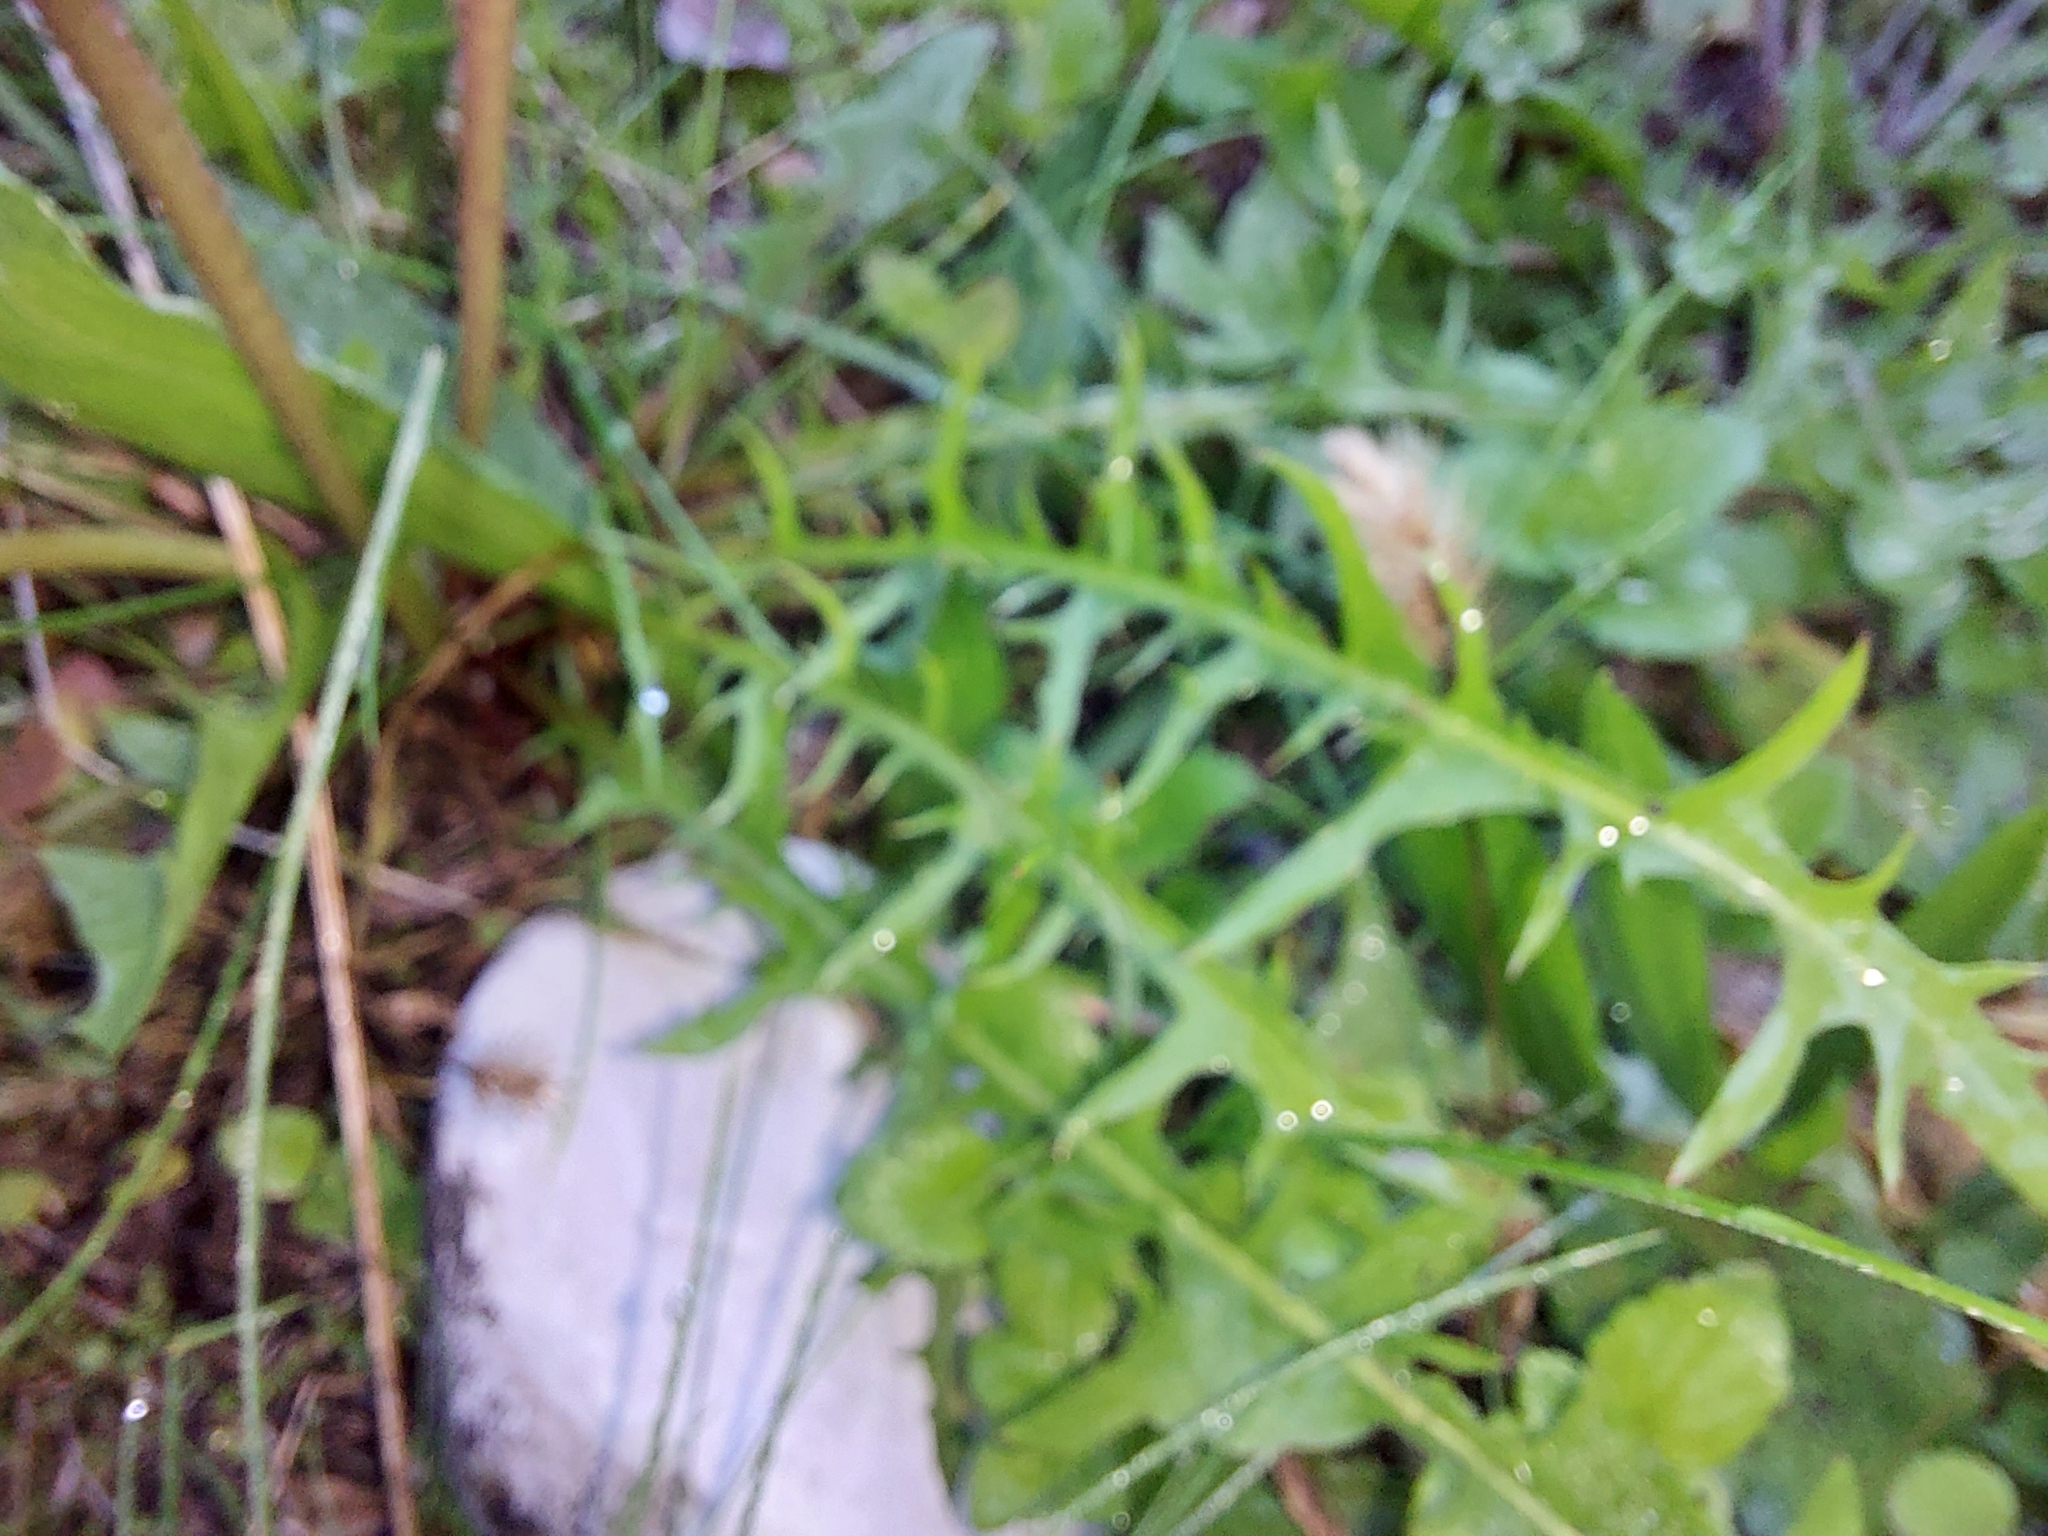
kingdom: Plantae
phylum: Tracheophyta
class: Magnoliopsida
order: Asterales
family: Asteraceae
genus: Taraxacum
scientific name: Taraxacum
